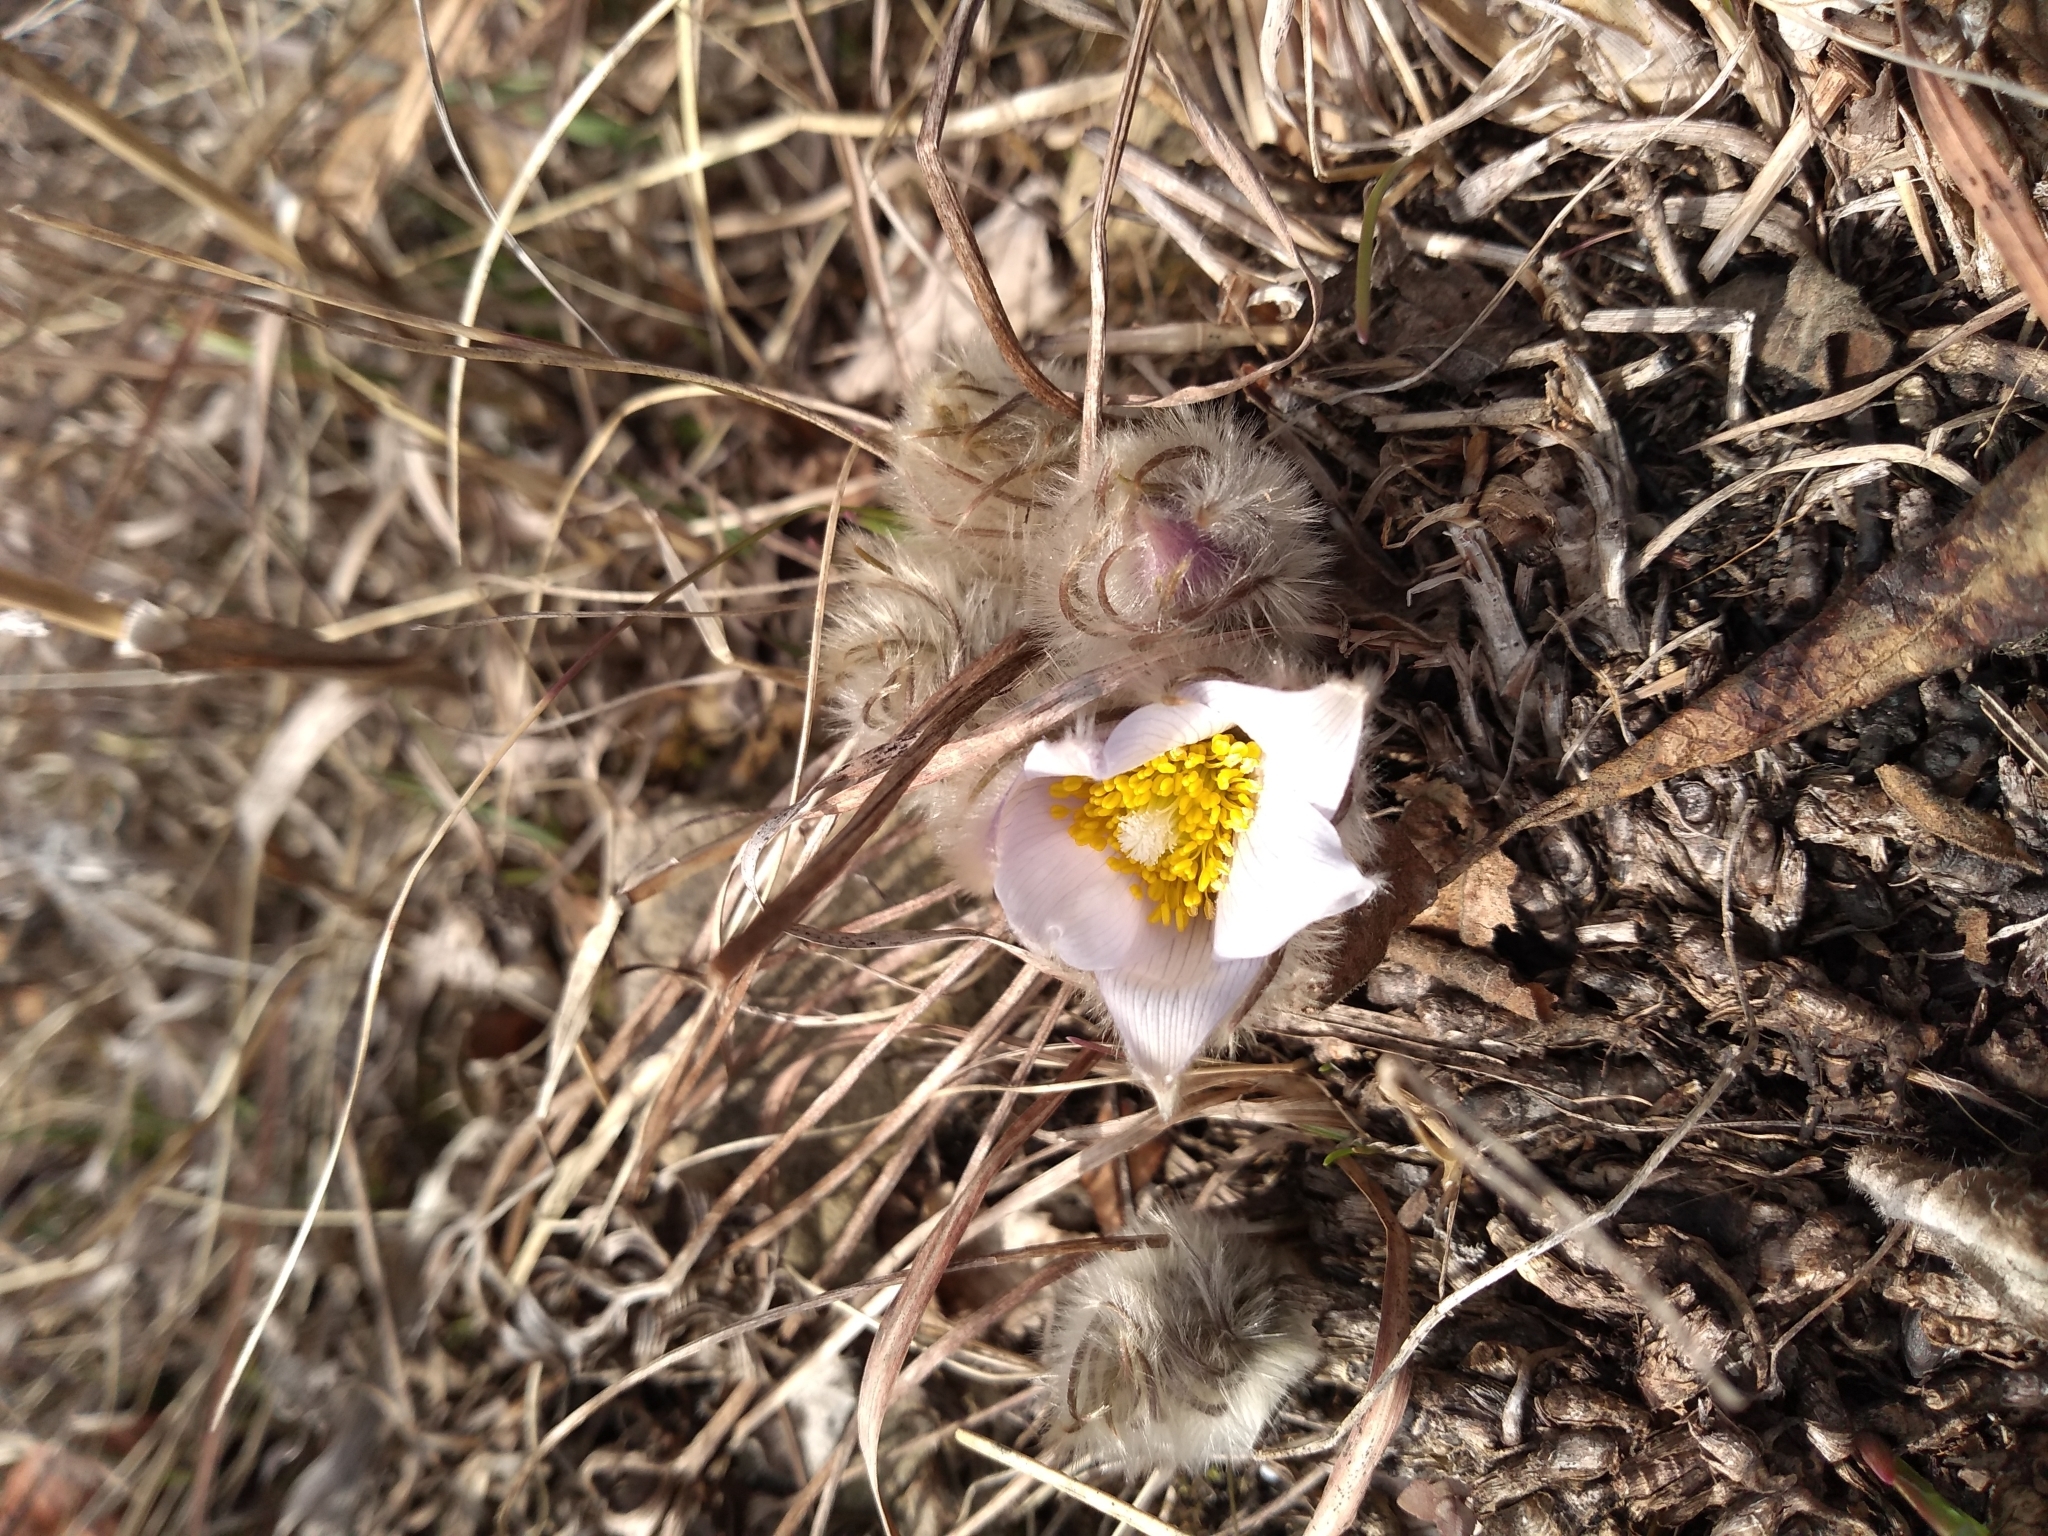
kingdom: Plantae
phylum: Tracheophyta
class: Magnoliopsida
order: Ranunculales
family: Ranunculaceae
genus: Pulsatilla
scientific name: Pulsatilla nuttalliana
